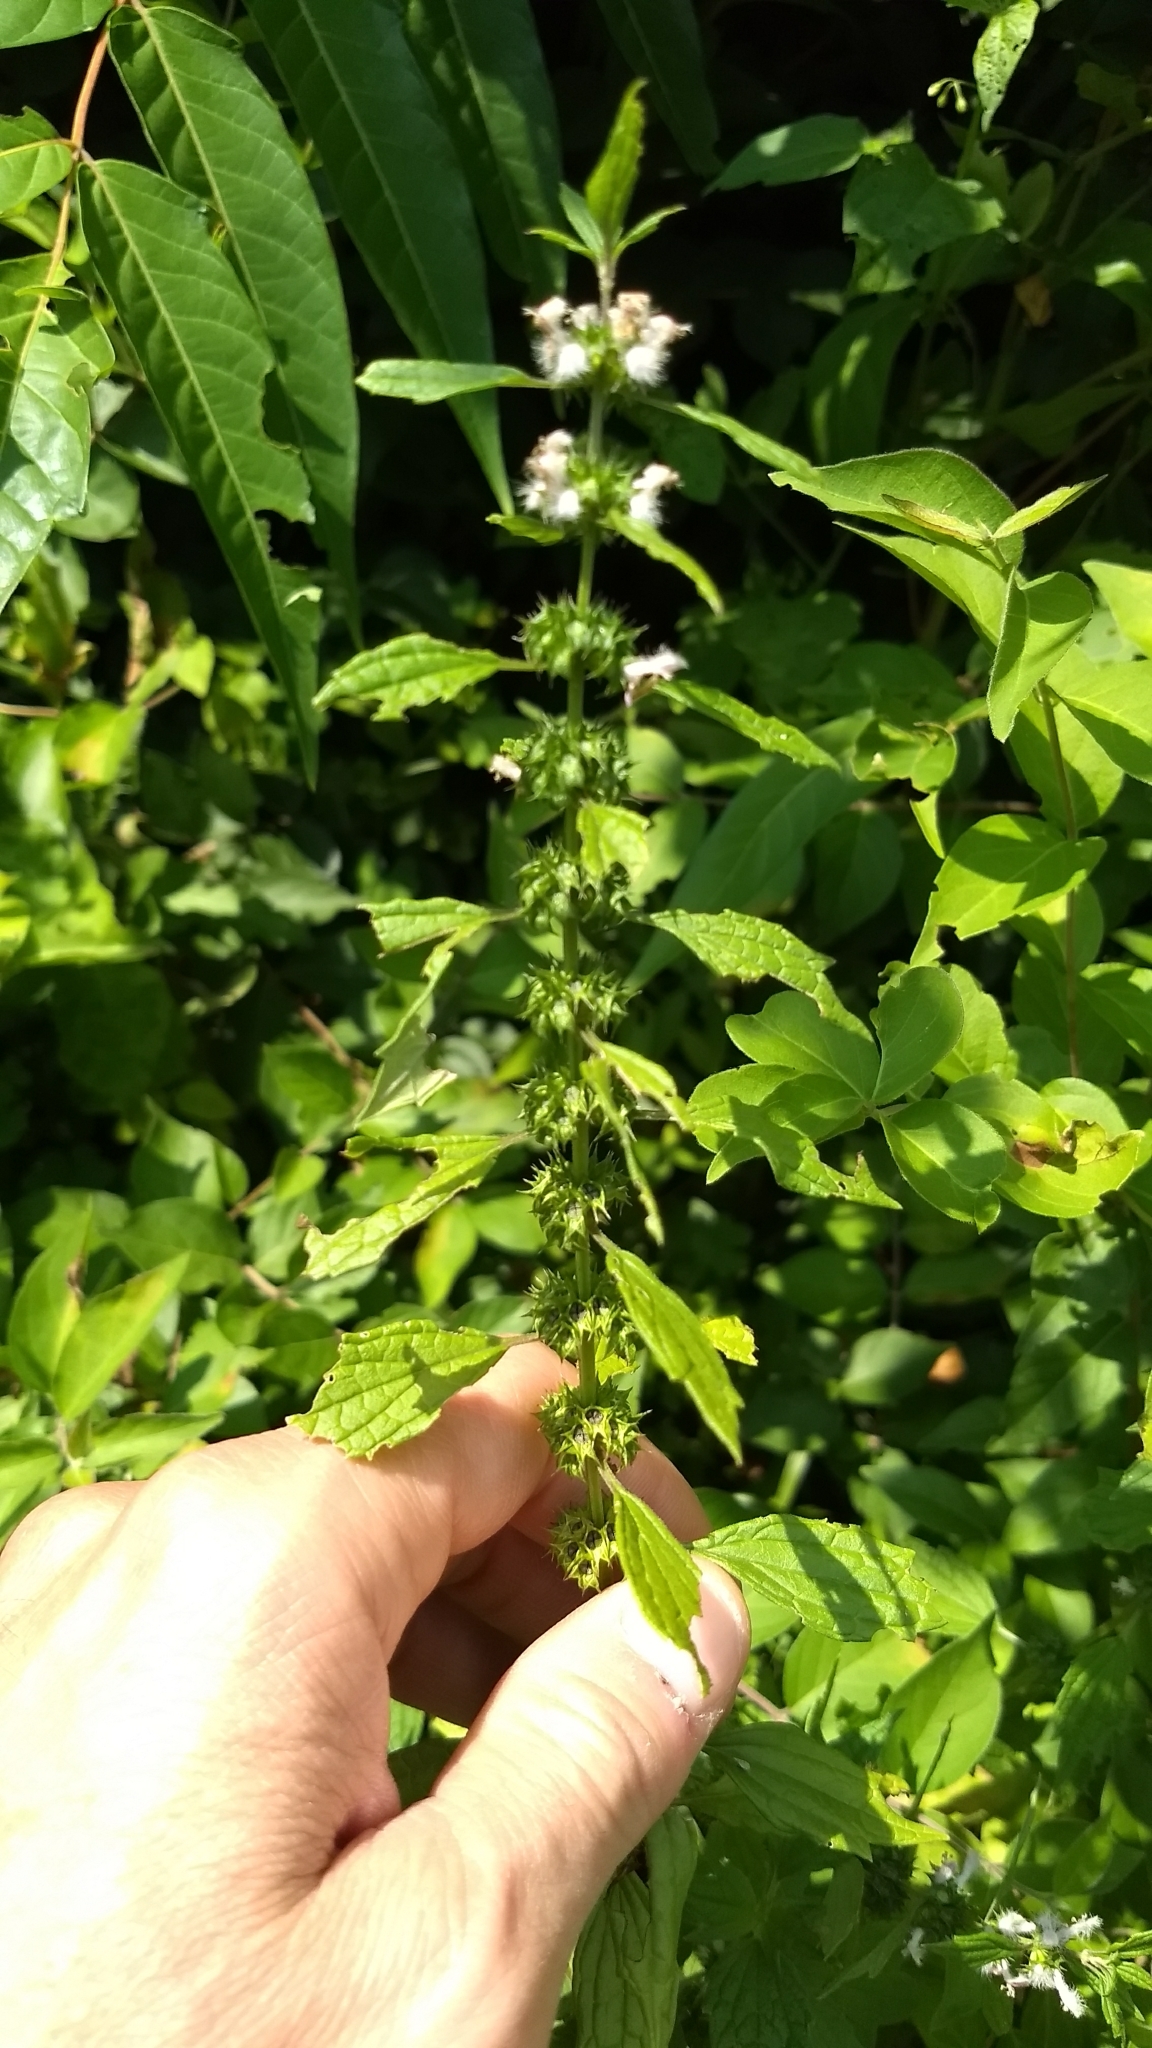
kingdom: Plantae
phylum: Tracheophyta
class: Magnoliopsida
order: Lamiales
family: Lamiaceae
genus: Leonurus
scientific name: Leonurus cardiaca
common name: Motherwort
